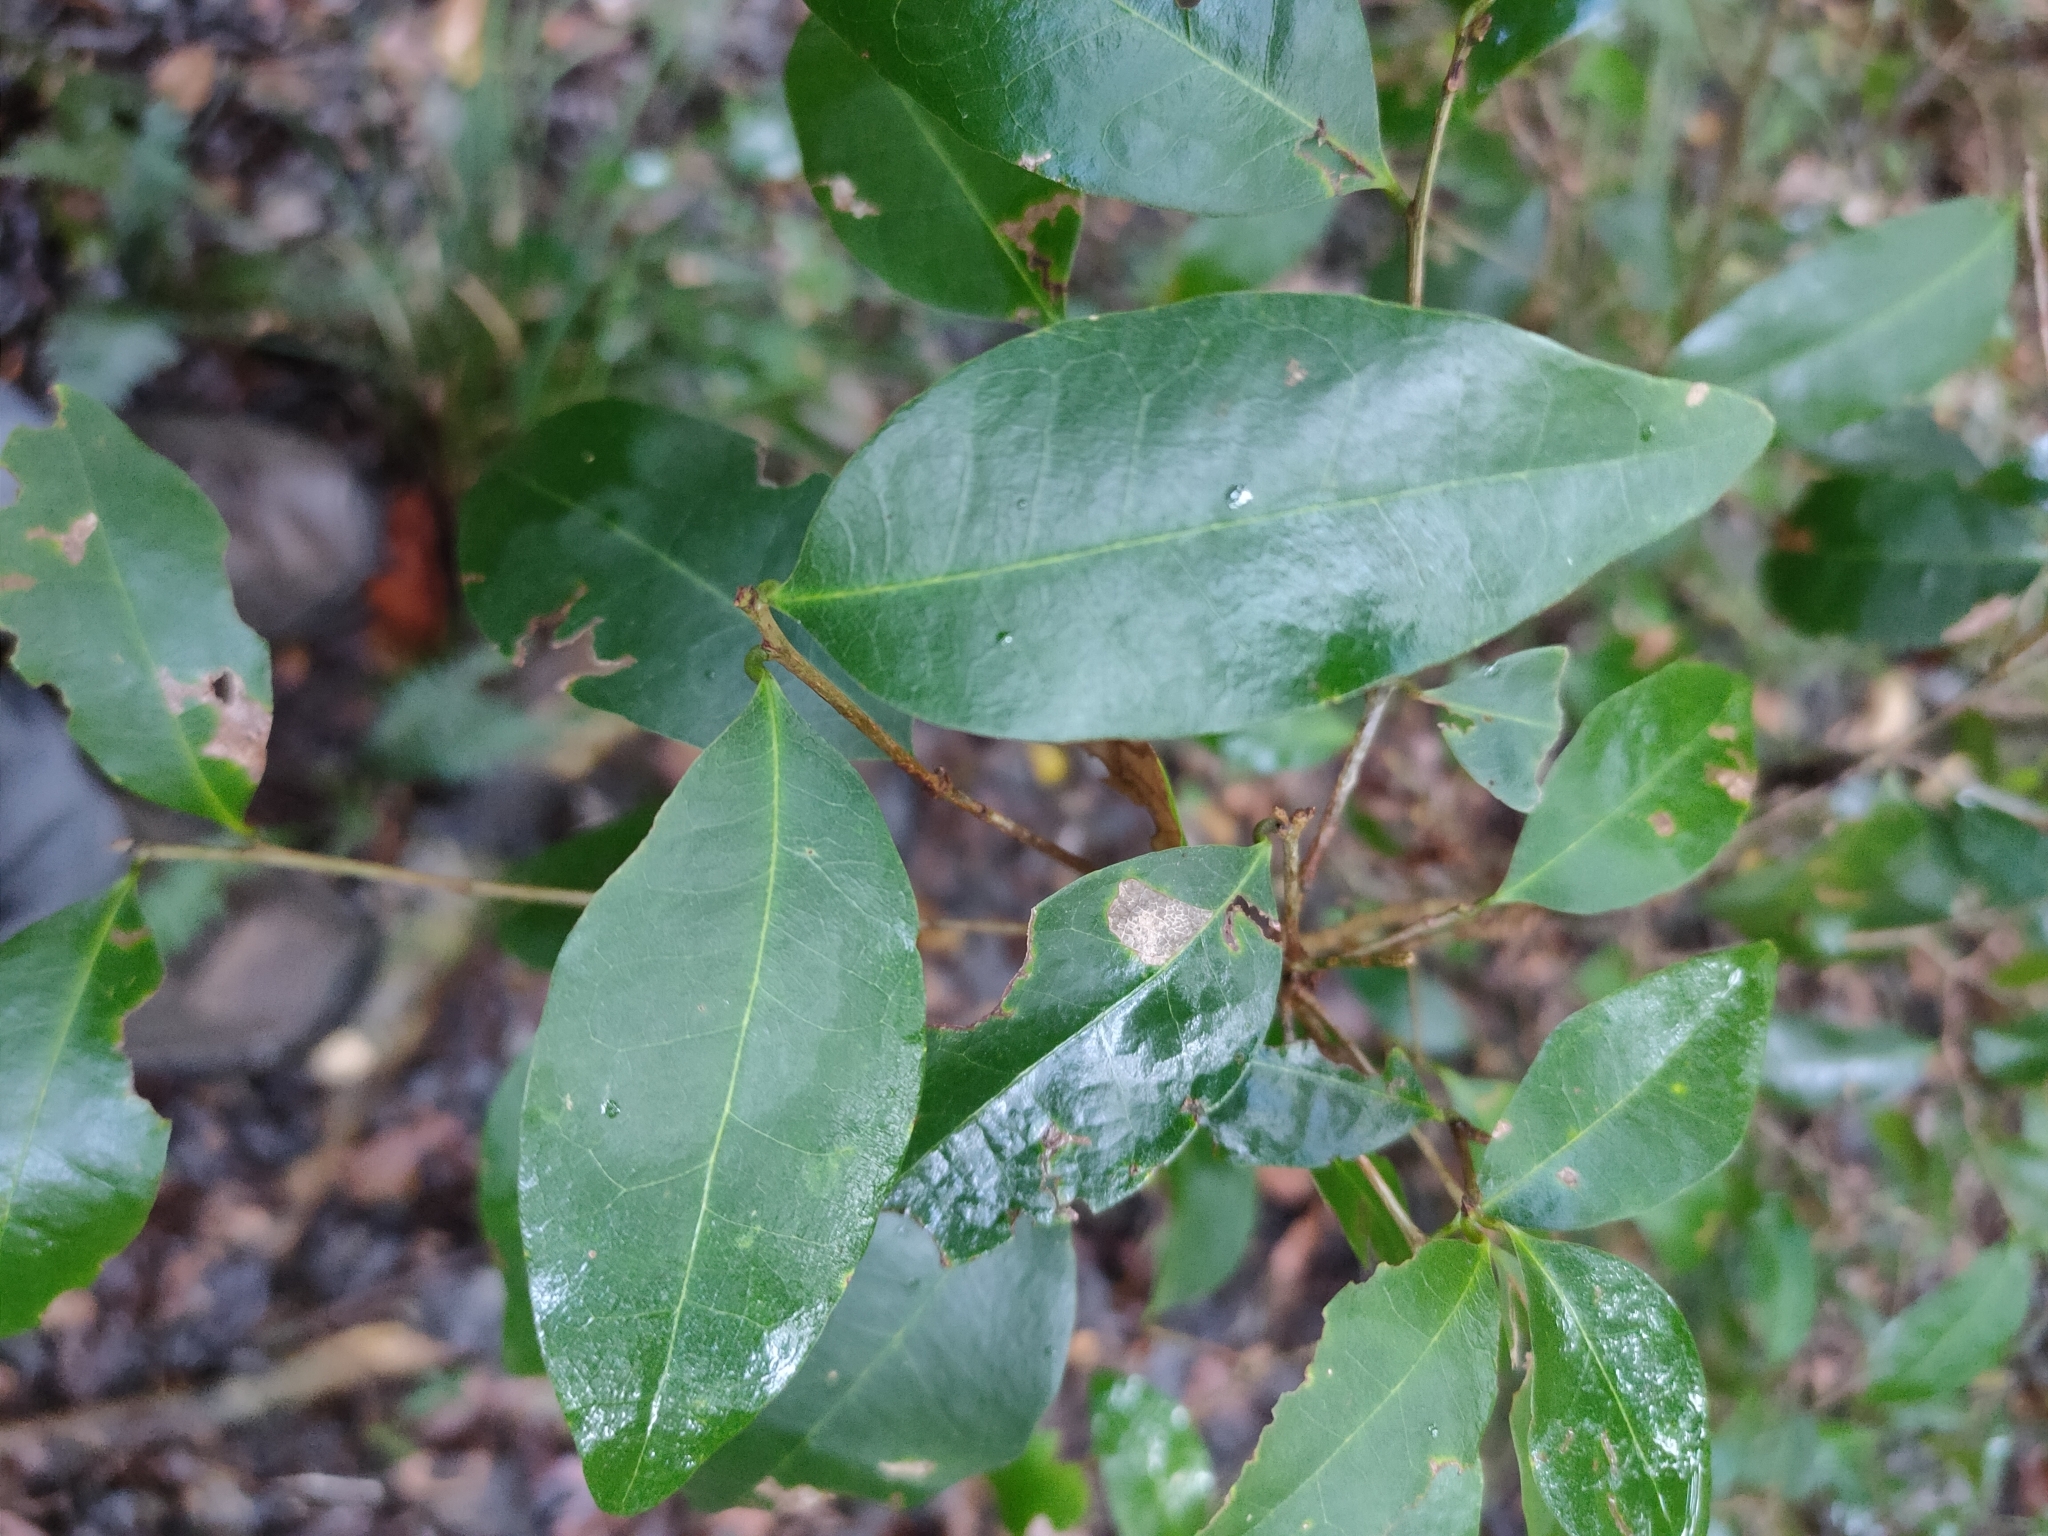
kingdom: Plantae
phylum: Tracheophyta
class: Magnoliopsida
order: Malpighiales
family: Phyllanthaceae
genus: Cleistanthus
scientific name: Cleistanthus cunninghamii
